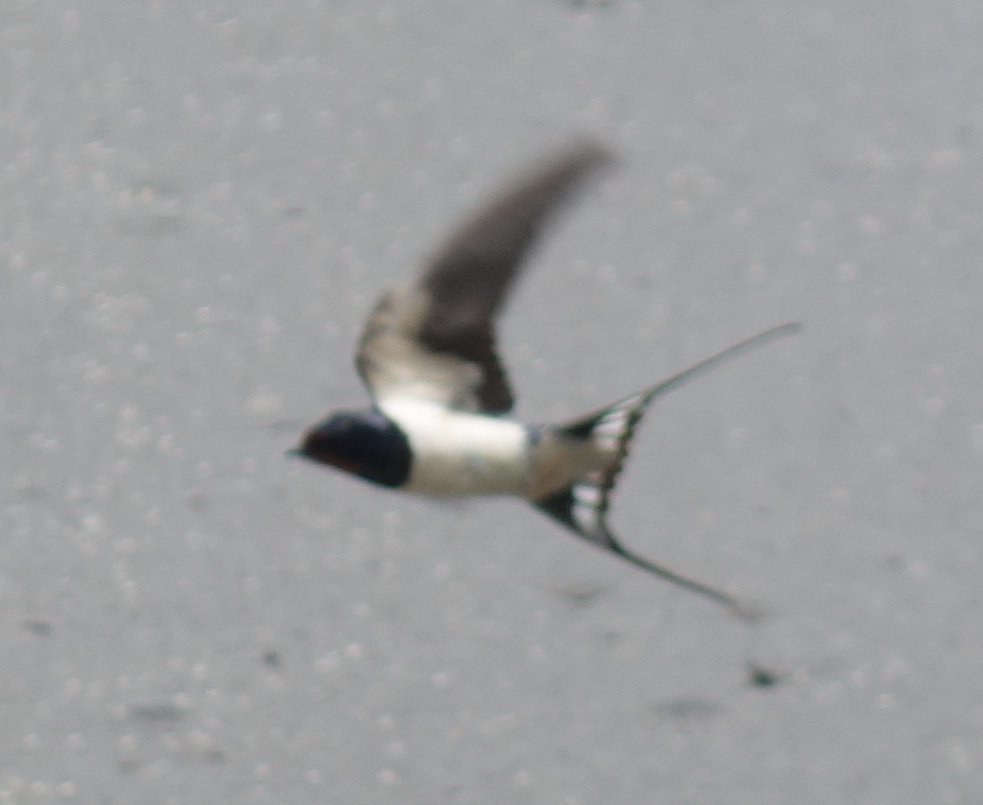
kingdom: Animalia
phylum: Chordata
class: Aves
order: Passeriformes
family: Hirundinidae
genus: Hirundo
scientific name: Hirundo rustica
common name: Barn swallow
